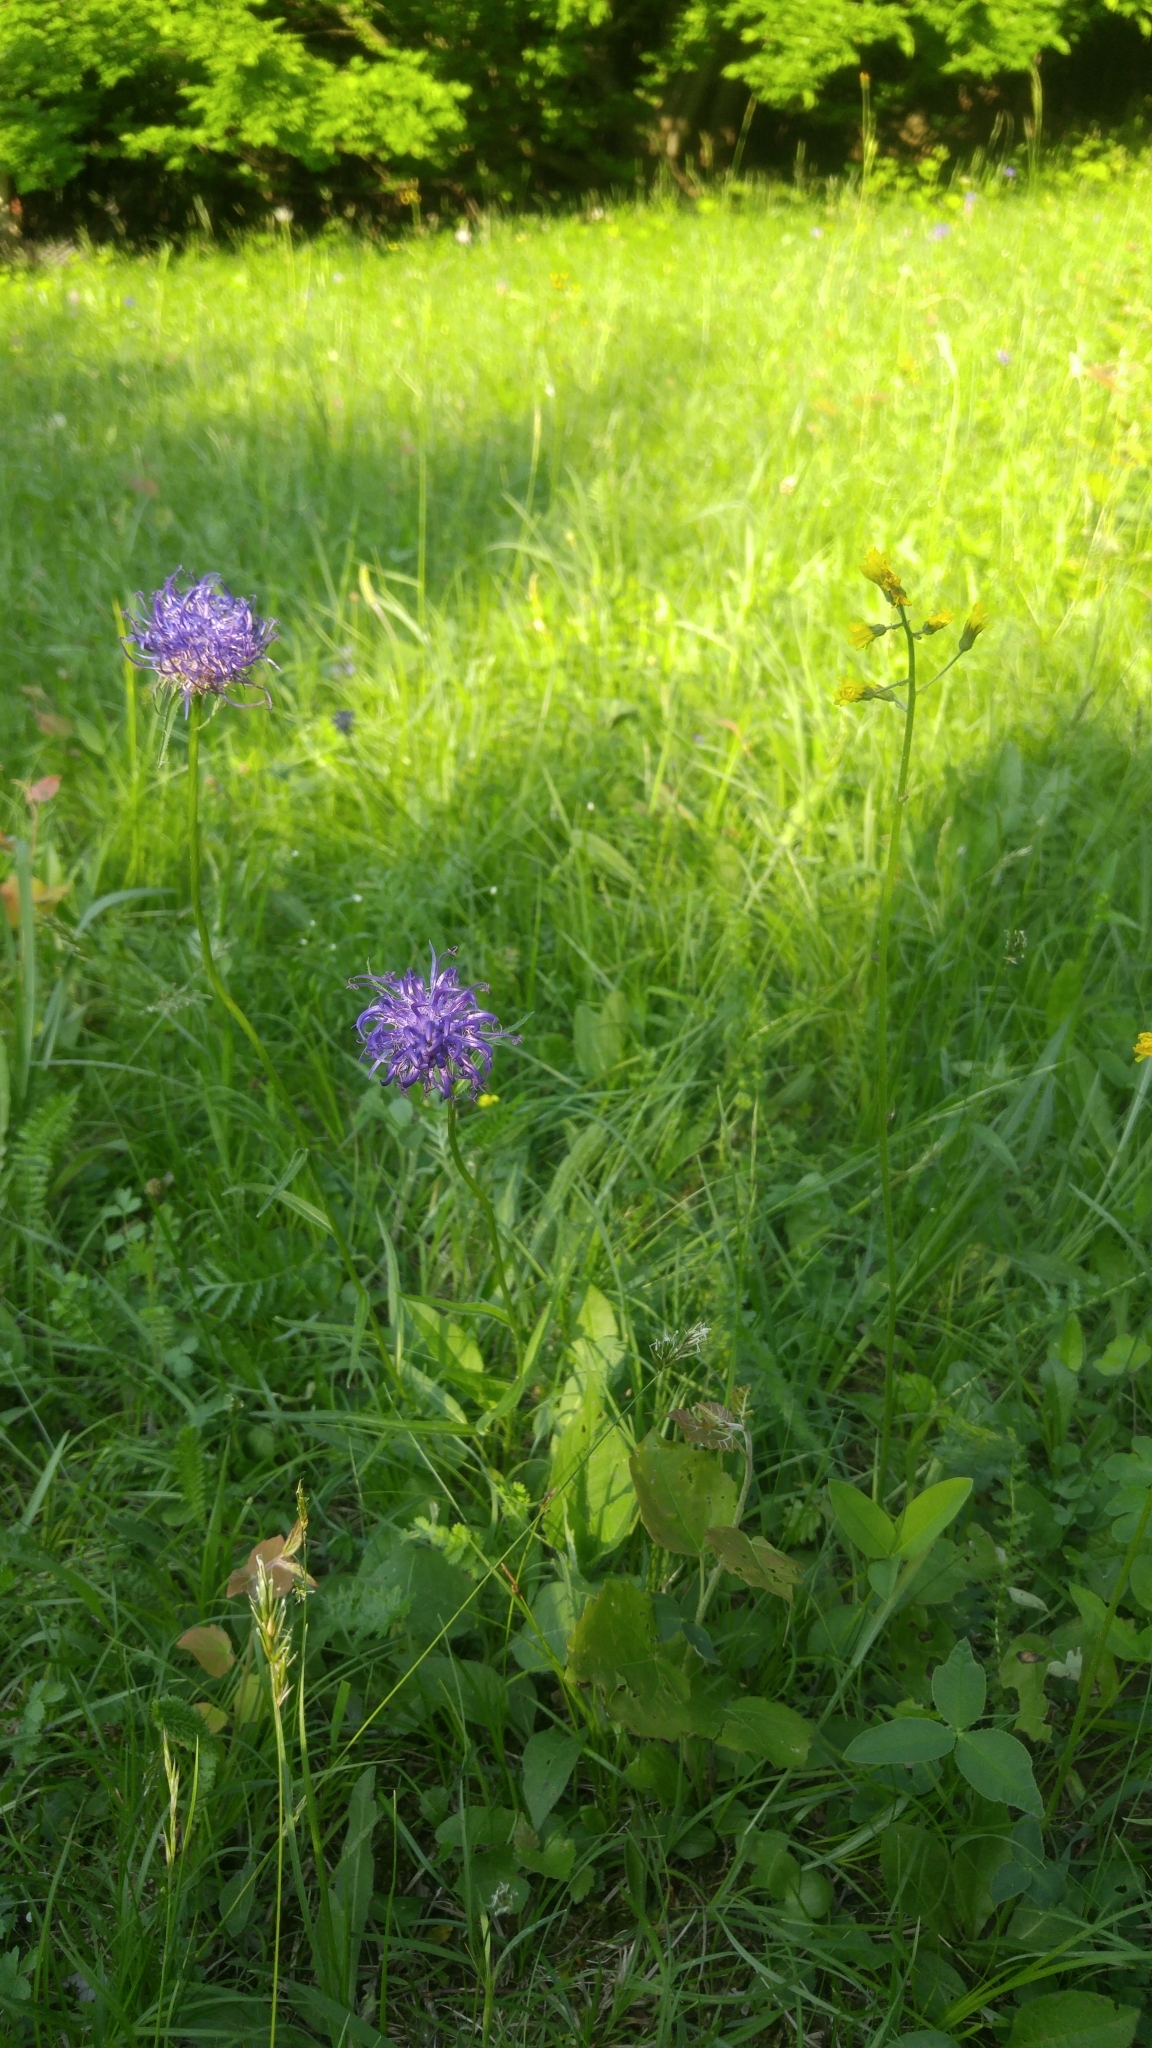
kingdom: Plantae
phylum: Tracheophyta
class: Magnoliopsida
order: Asterales
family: Campanulaceae
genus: Phyteuma
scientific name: Phyteuma orbiculare
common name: Round-headed rampion
